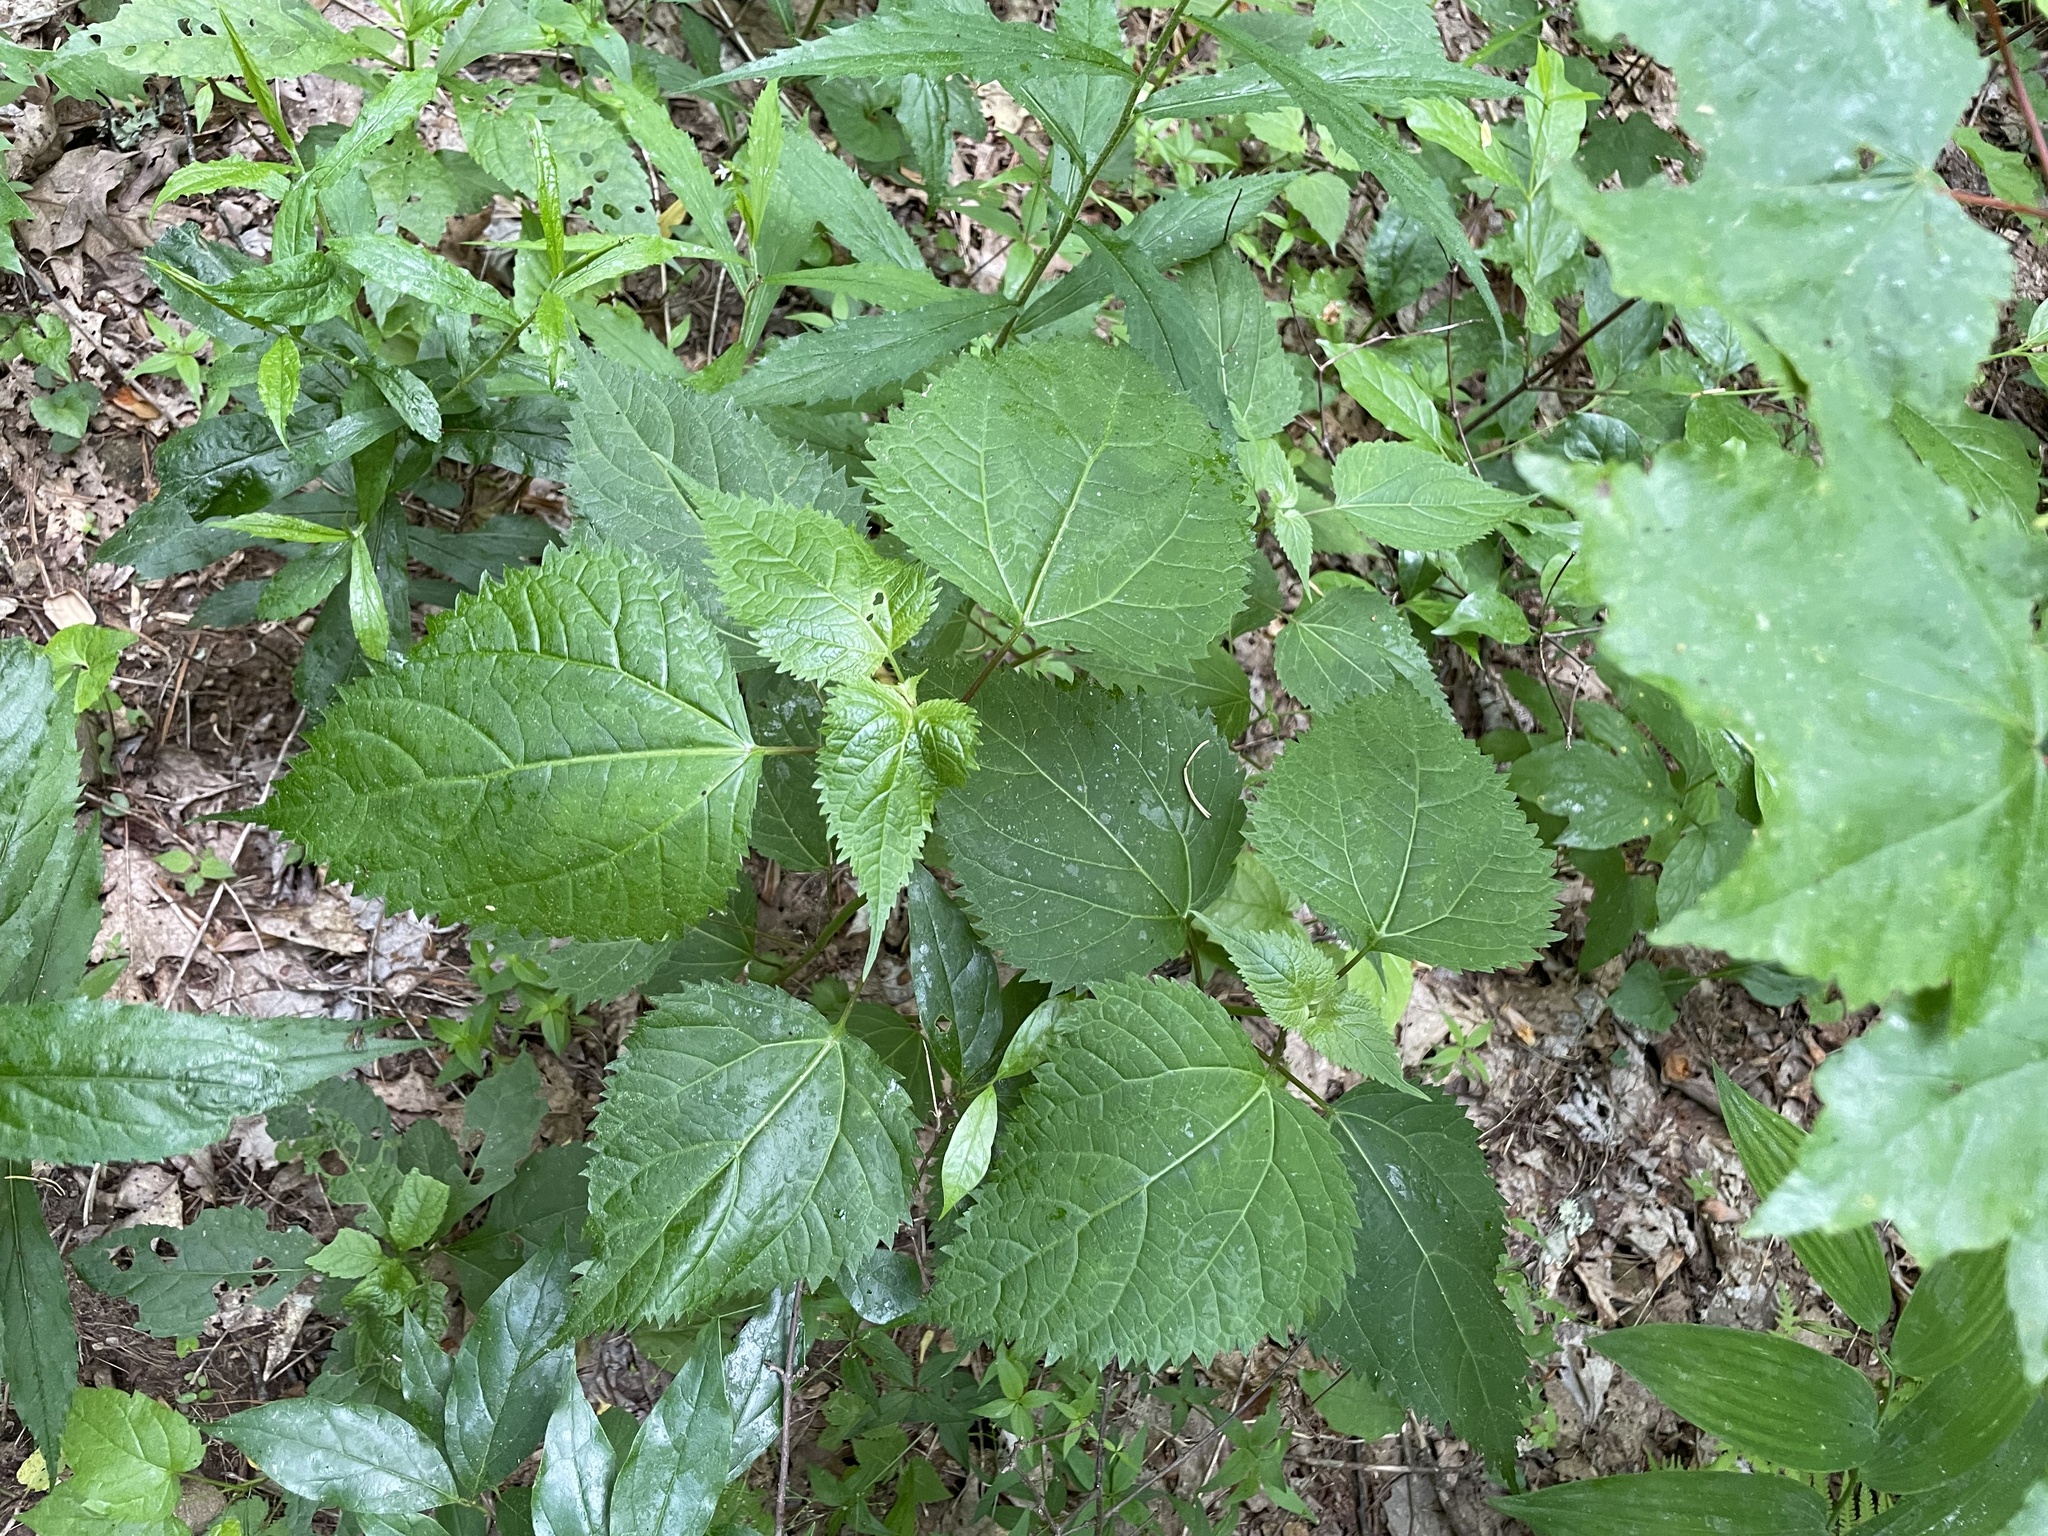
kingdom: Plantae
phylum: Tracheophyta
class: Magnoliopsida
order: Asterales
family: Asteraceae
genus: Ageratina
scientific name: Ageratina roanensis
